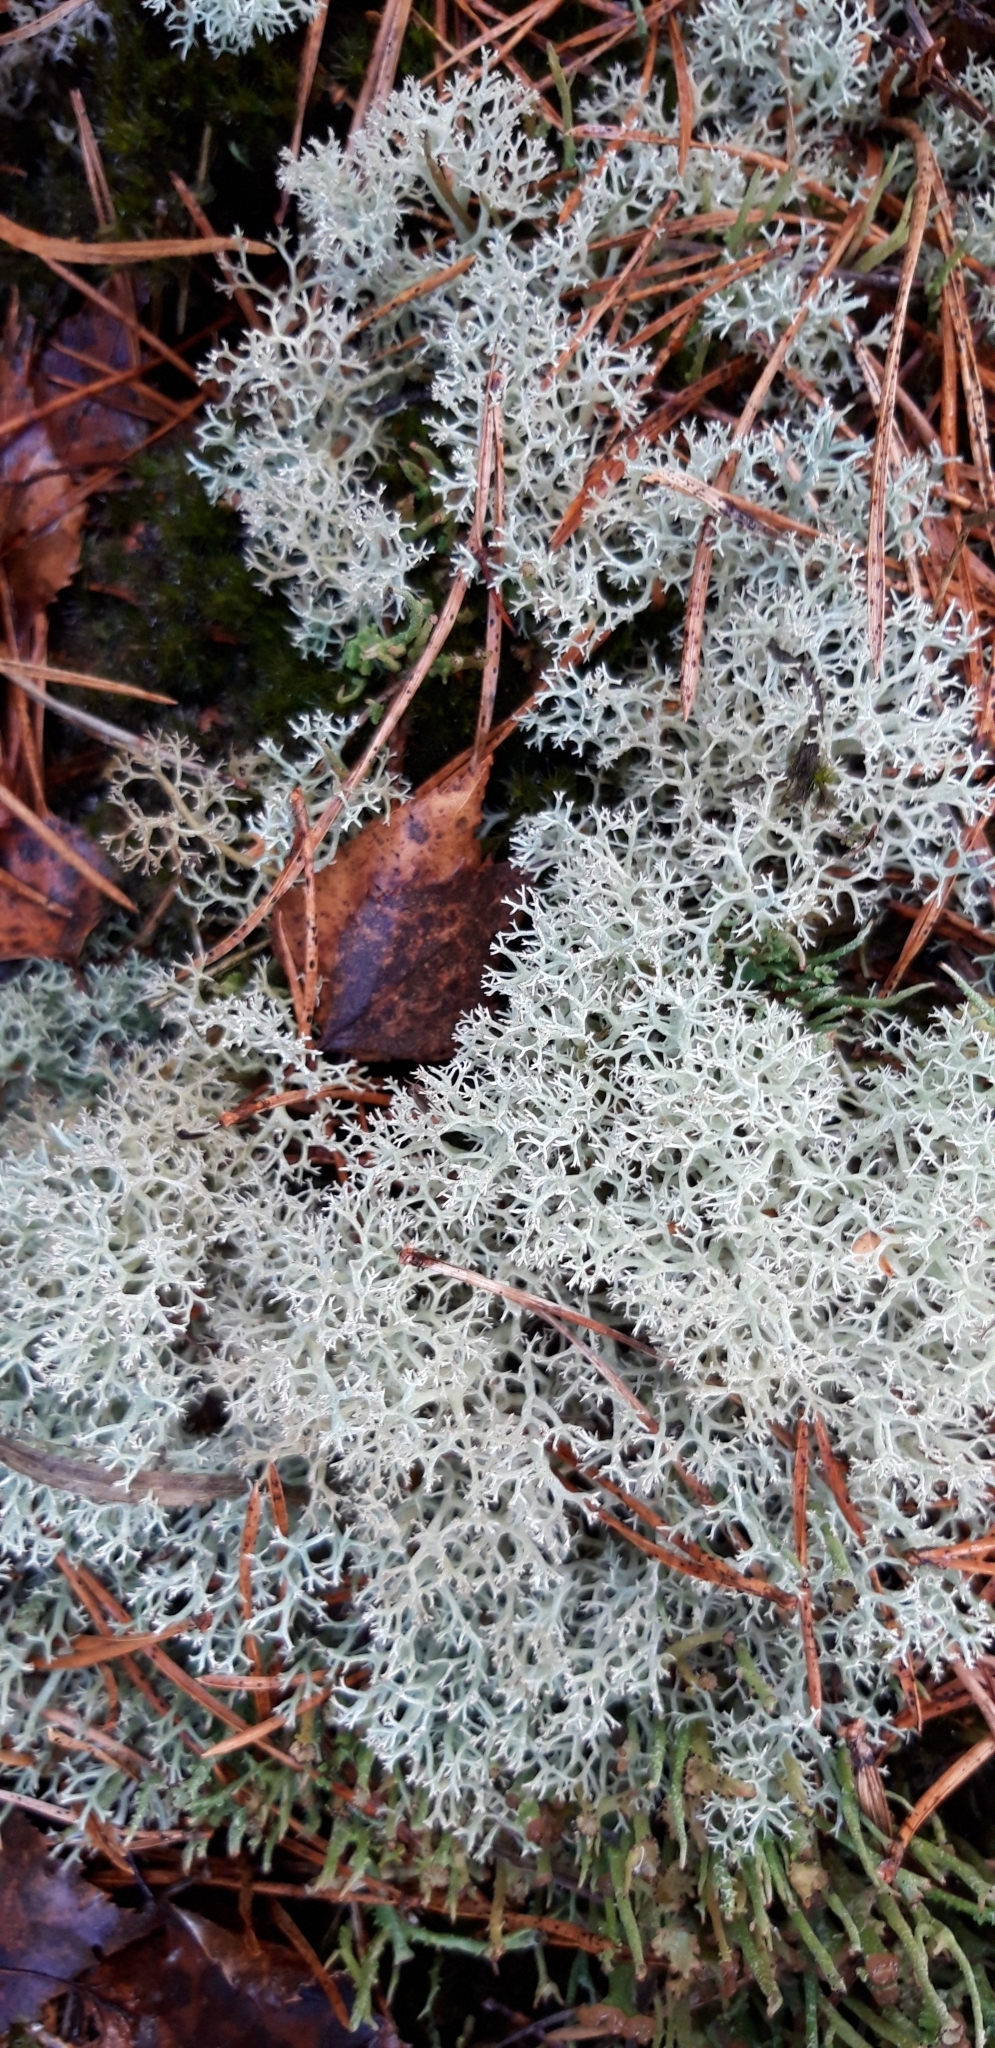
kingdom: Fungi
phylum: Ascomycota
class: Lecanoromycetes
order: Lecanorales
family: Cladoniaceae
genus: Cladonia
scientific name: Cladonia portentosa
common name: Reindeer lichen
